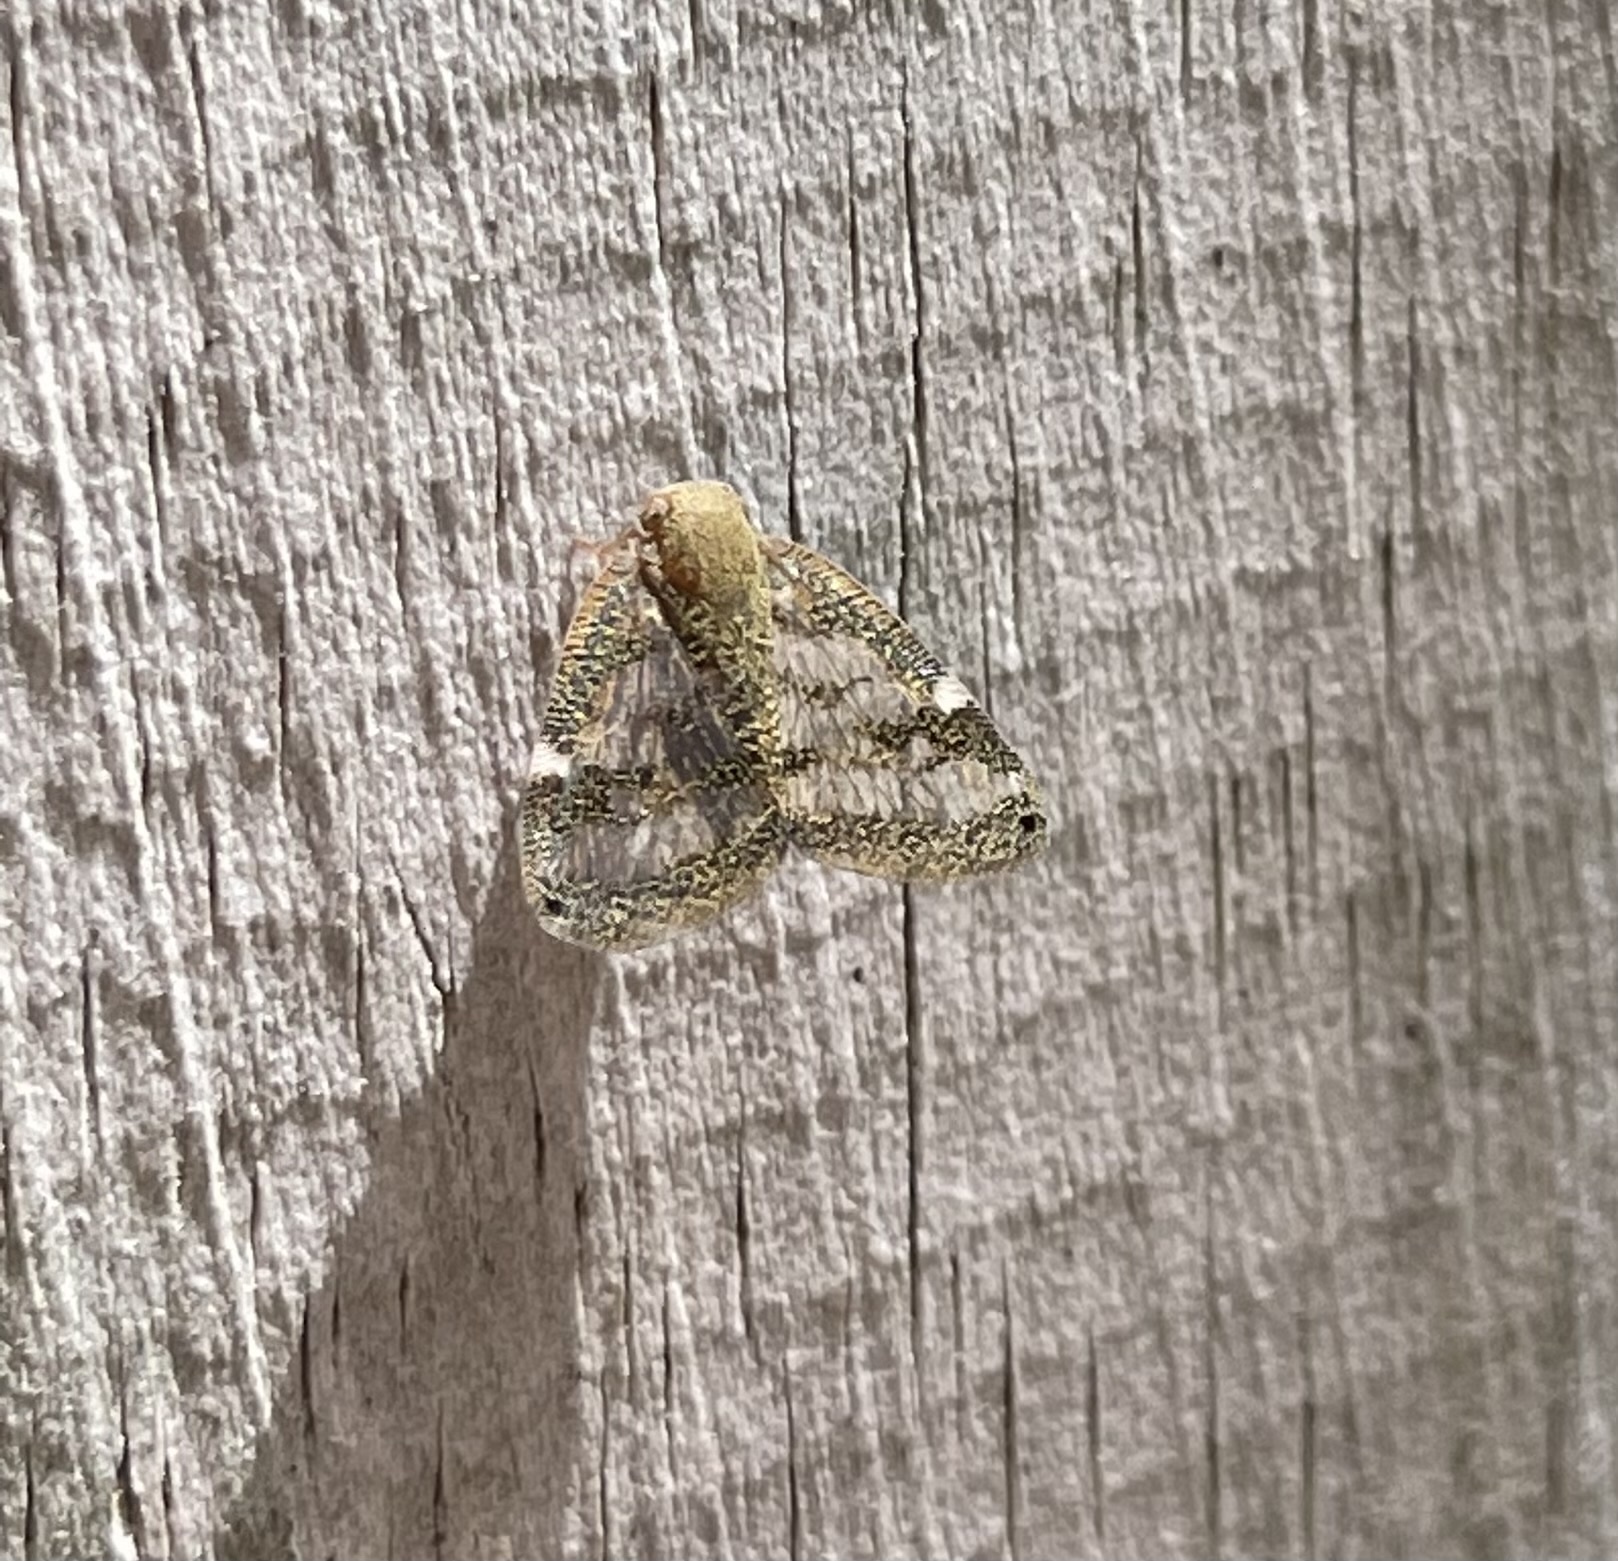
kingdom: Animalia
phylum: Arthropoda
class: Insecta
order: Hemiptera
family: Ricaniidae
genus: Scolypopa
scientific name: Scolypopa australis
